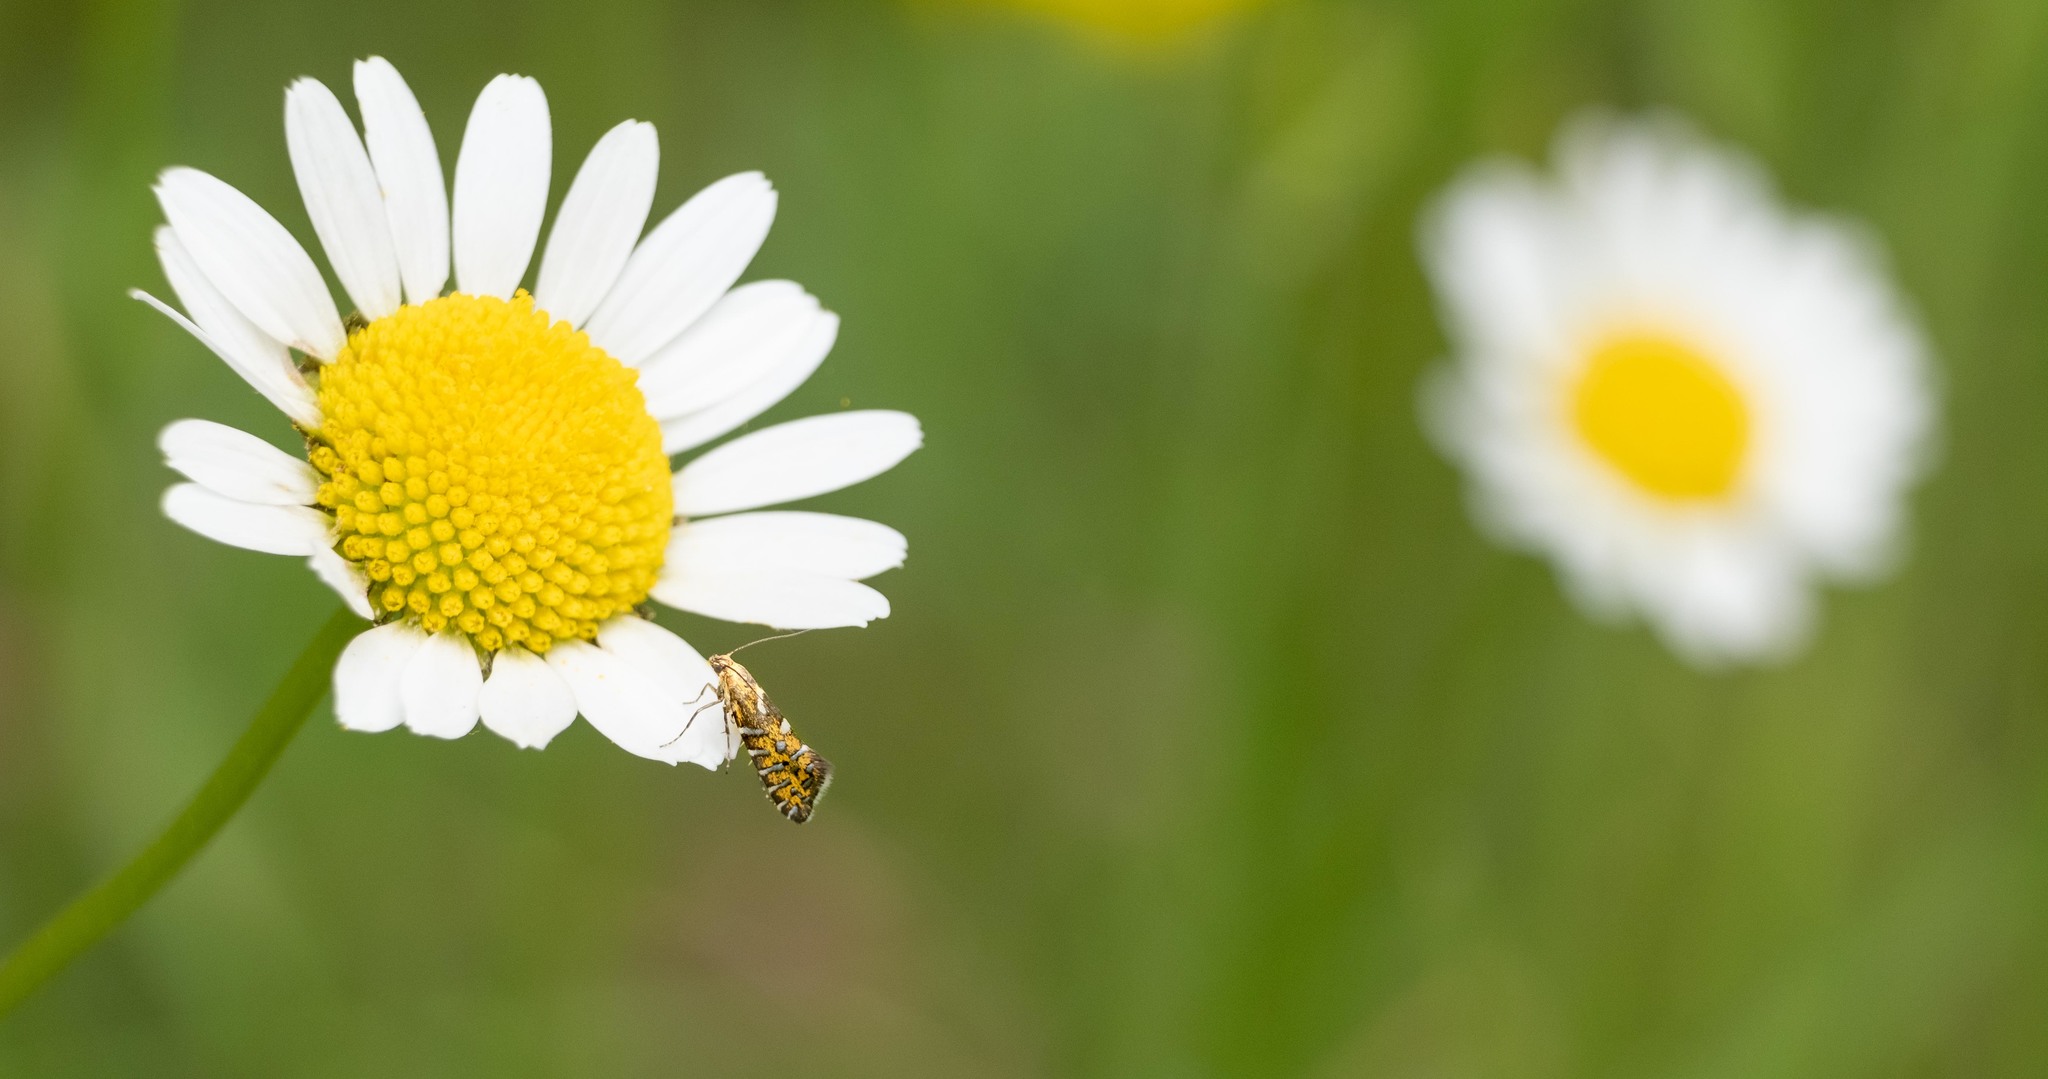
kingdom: Animalia
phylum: Arthropoda
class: Insecta
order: Lepidoptera
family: Glyphipterigidae
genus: Glyphipterix
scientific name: Glyphipterix bergstraesserella
